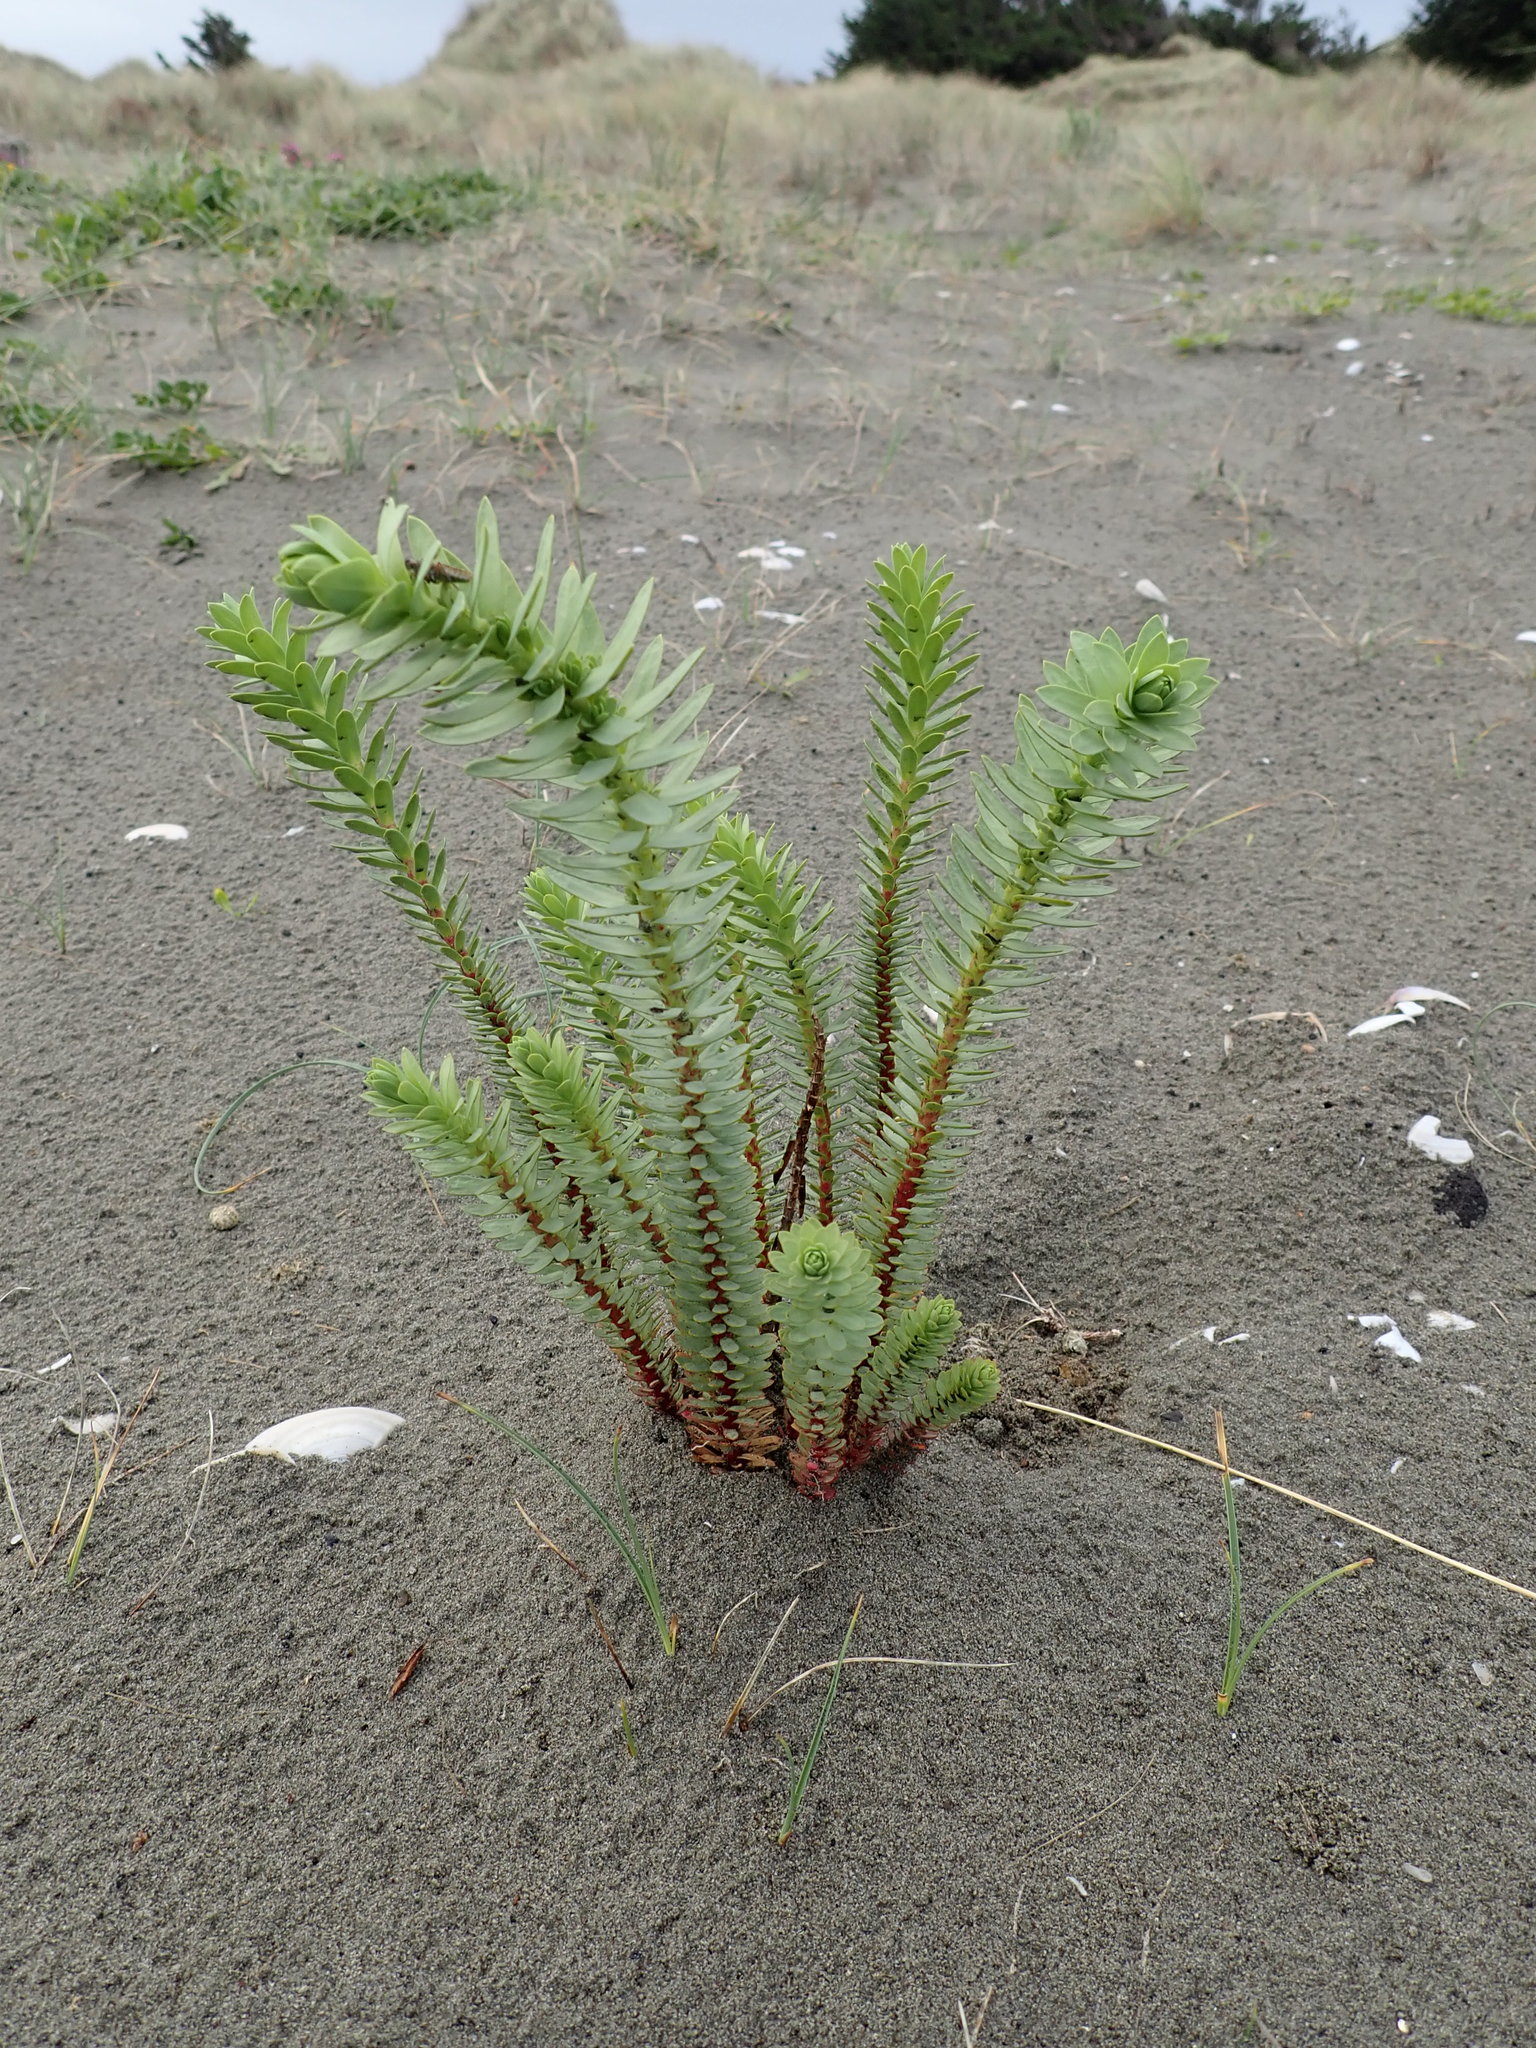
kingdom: Plantae
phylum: Tracheophyta
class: Magnoliopsida
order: Malpighiales
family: Euphorbiaceae
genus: Euphorbia
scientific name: Euphorbia paralias
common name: Sea spurge
